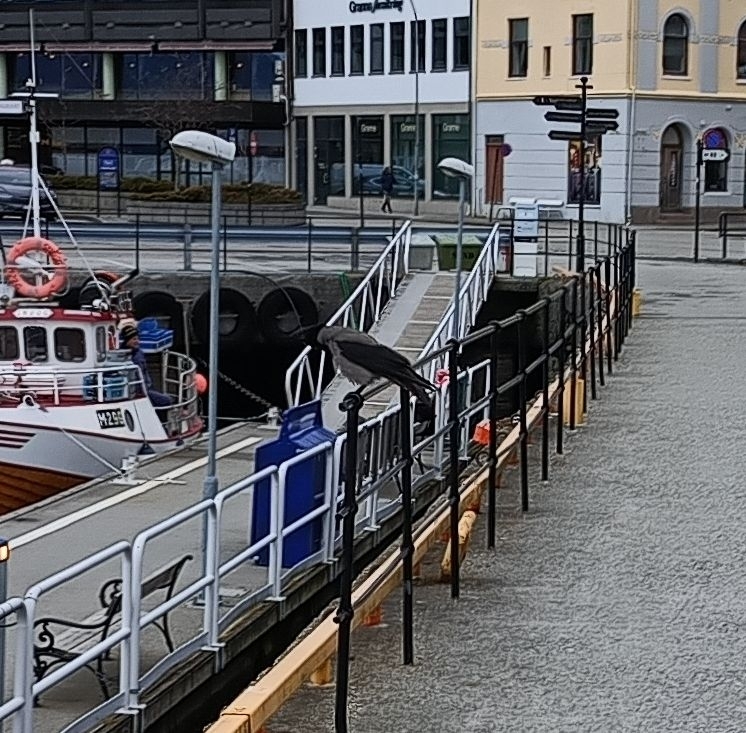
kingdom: Animalia
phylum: Chordata
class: Aves
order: Passeriformes
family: Corvidae
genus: Corvus
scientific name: Corvus cornix
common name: Hooded crow
